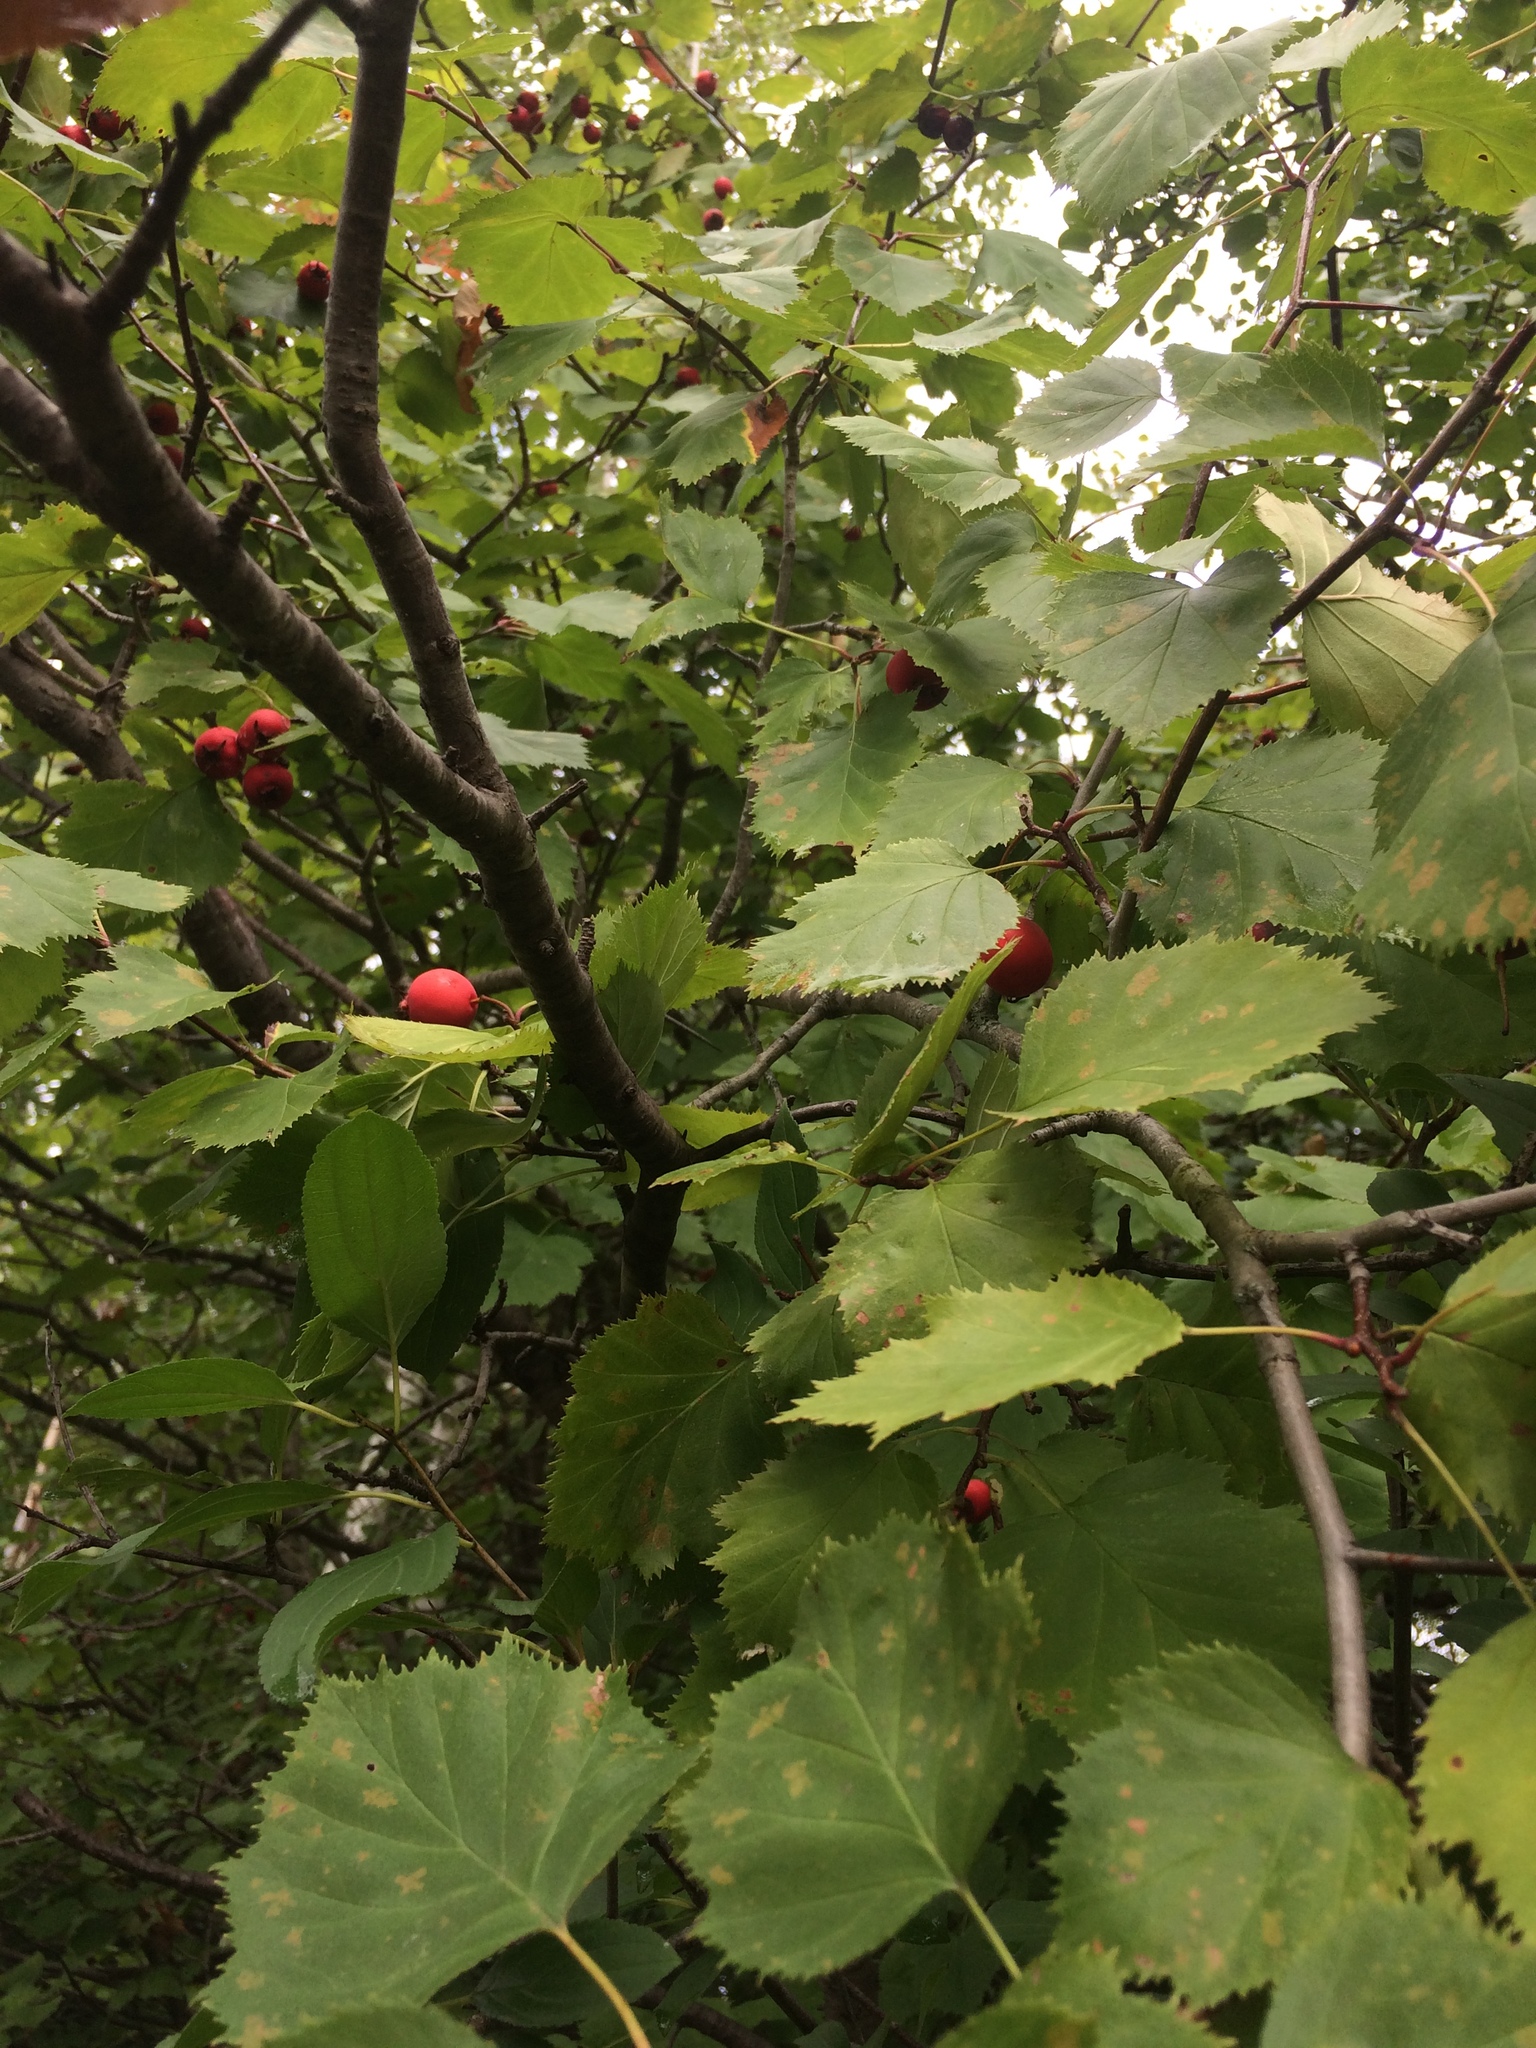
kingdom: Plantae
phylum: Tracheophyta
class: Magnoliopsida
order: Rosales
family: Rosaceae
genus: Crataegus
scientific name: Crataegus coccinioides
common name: Large-flowered cockspurthorn
